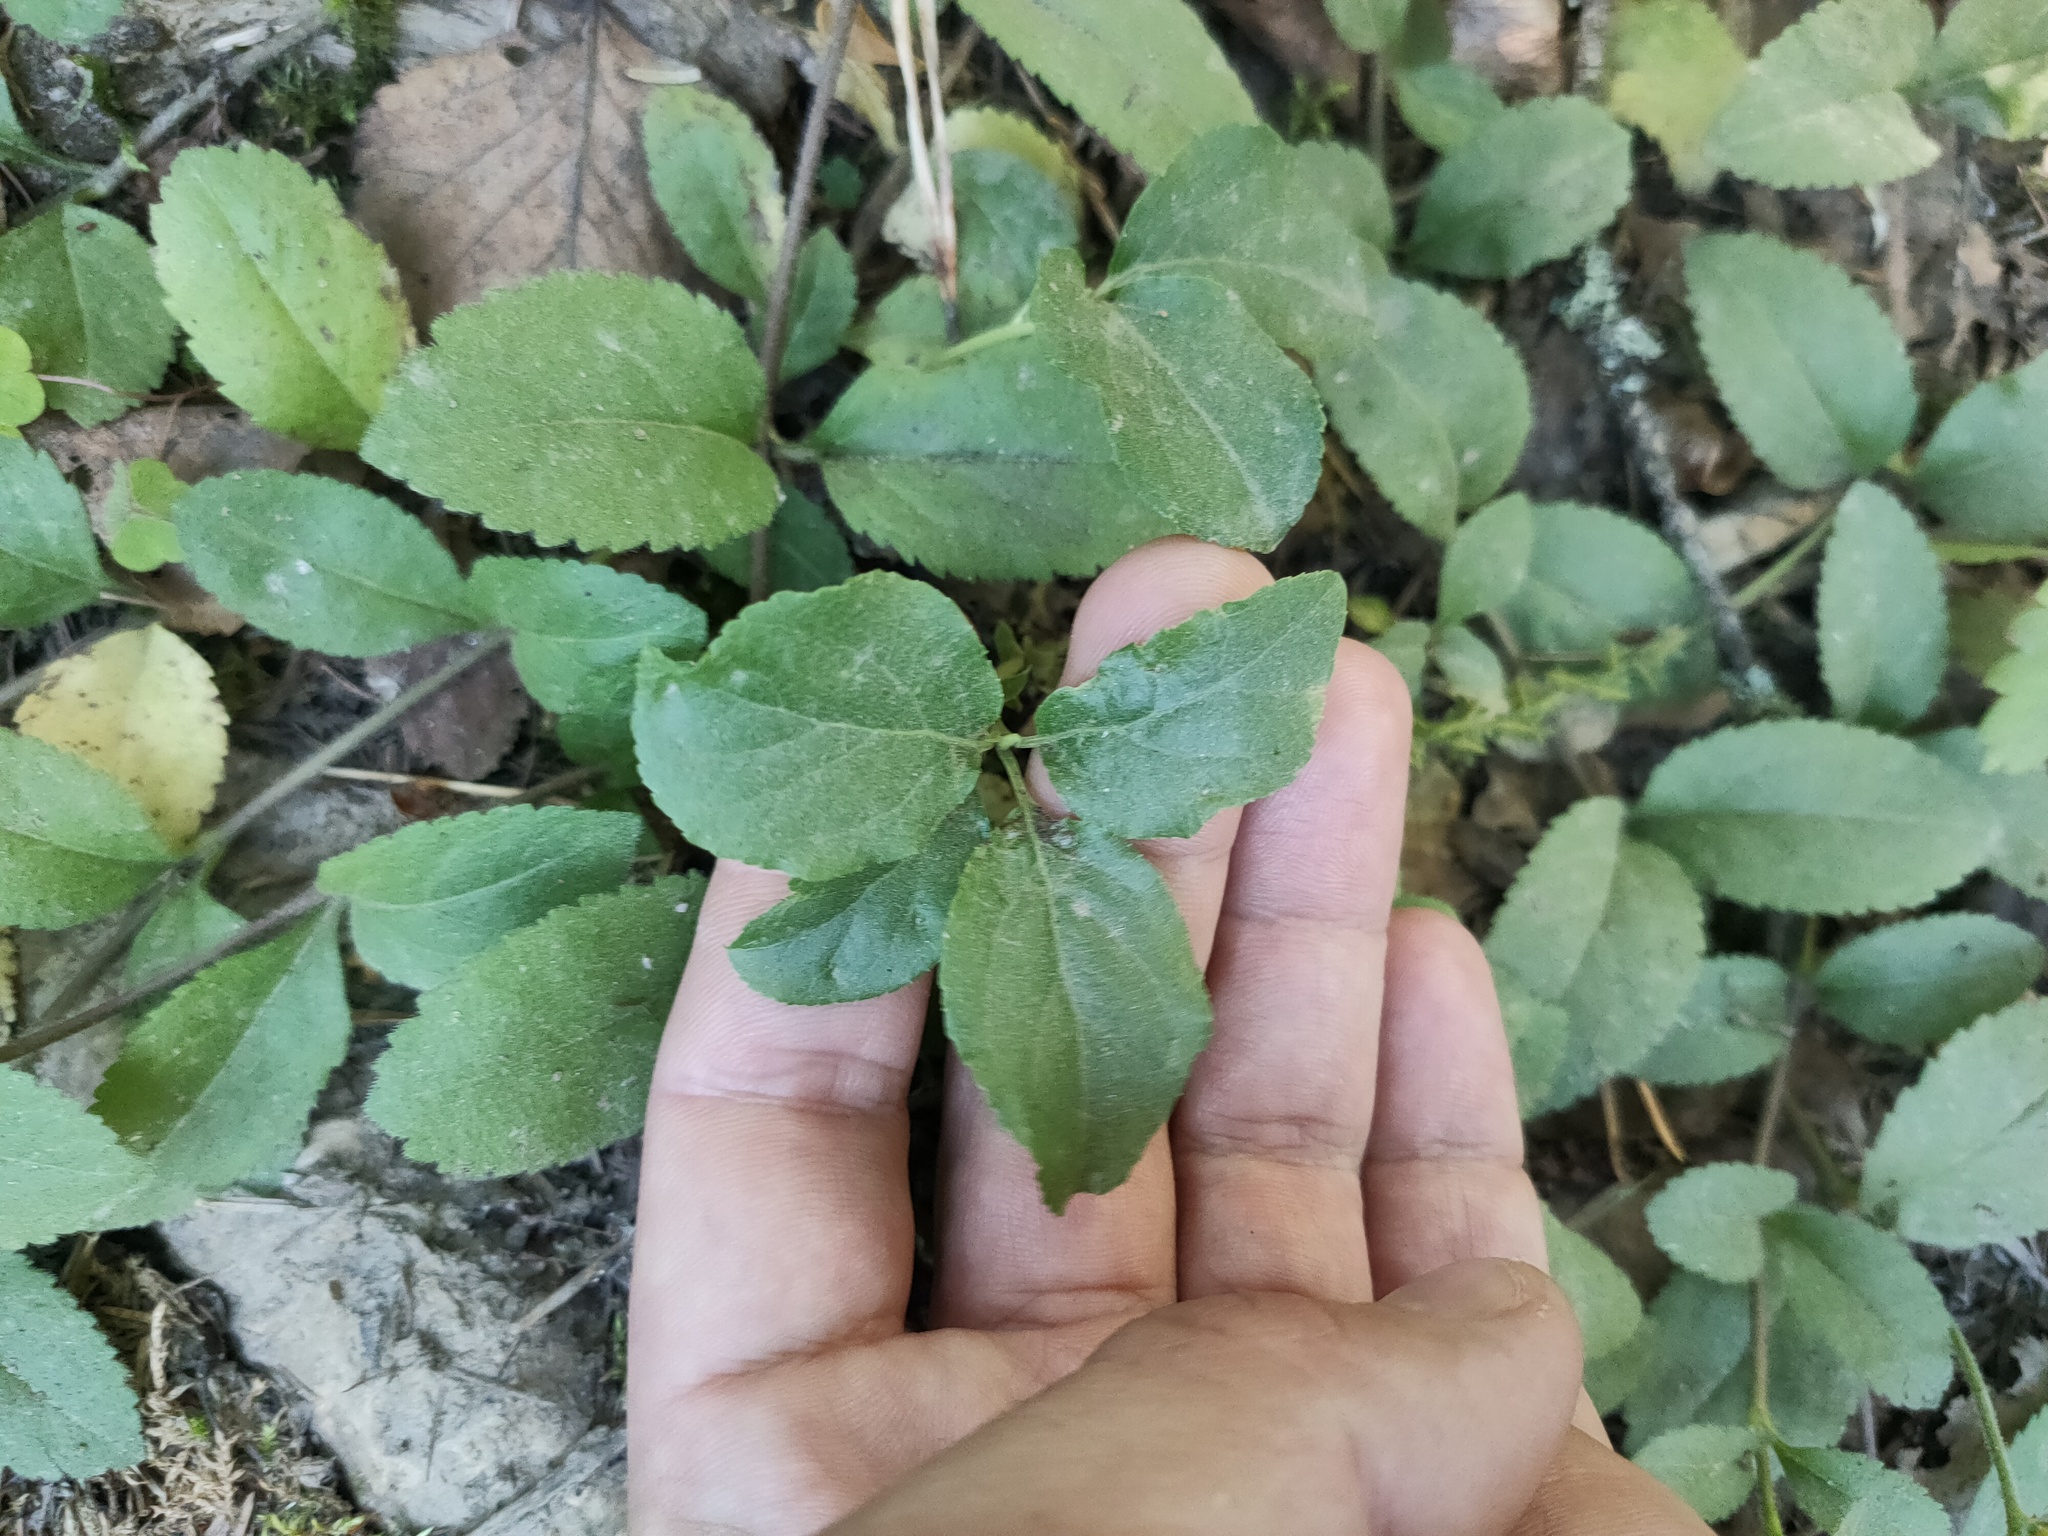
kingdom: Plantae
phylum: Tracheophyta
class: Magnoliopsida
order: Lamiales
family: Plantaginaceae
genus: Veronica
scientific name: Veronica officinalis
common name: Common speedwell
